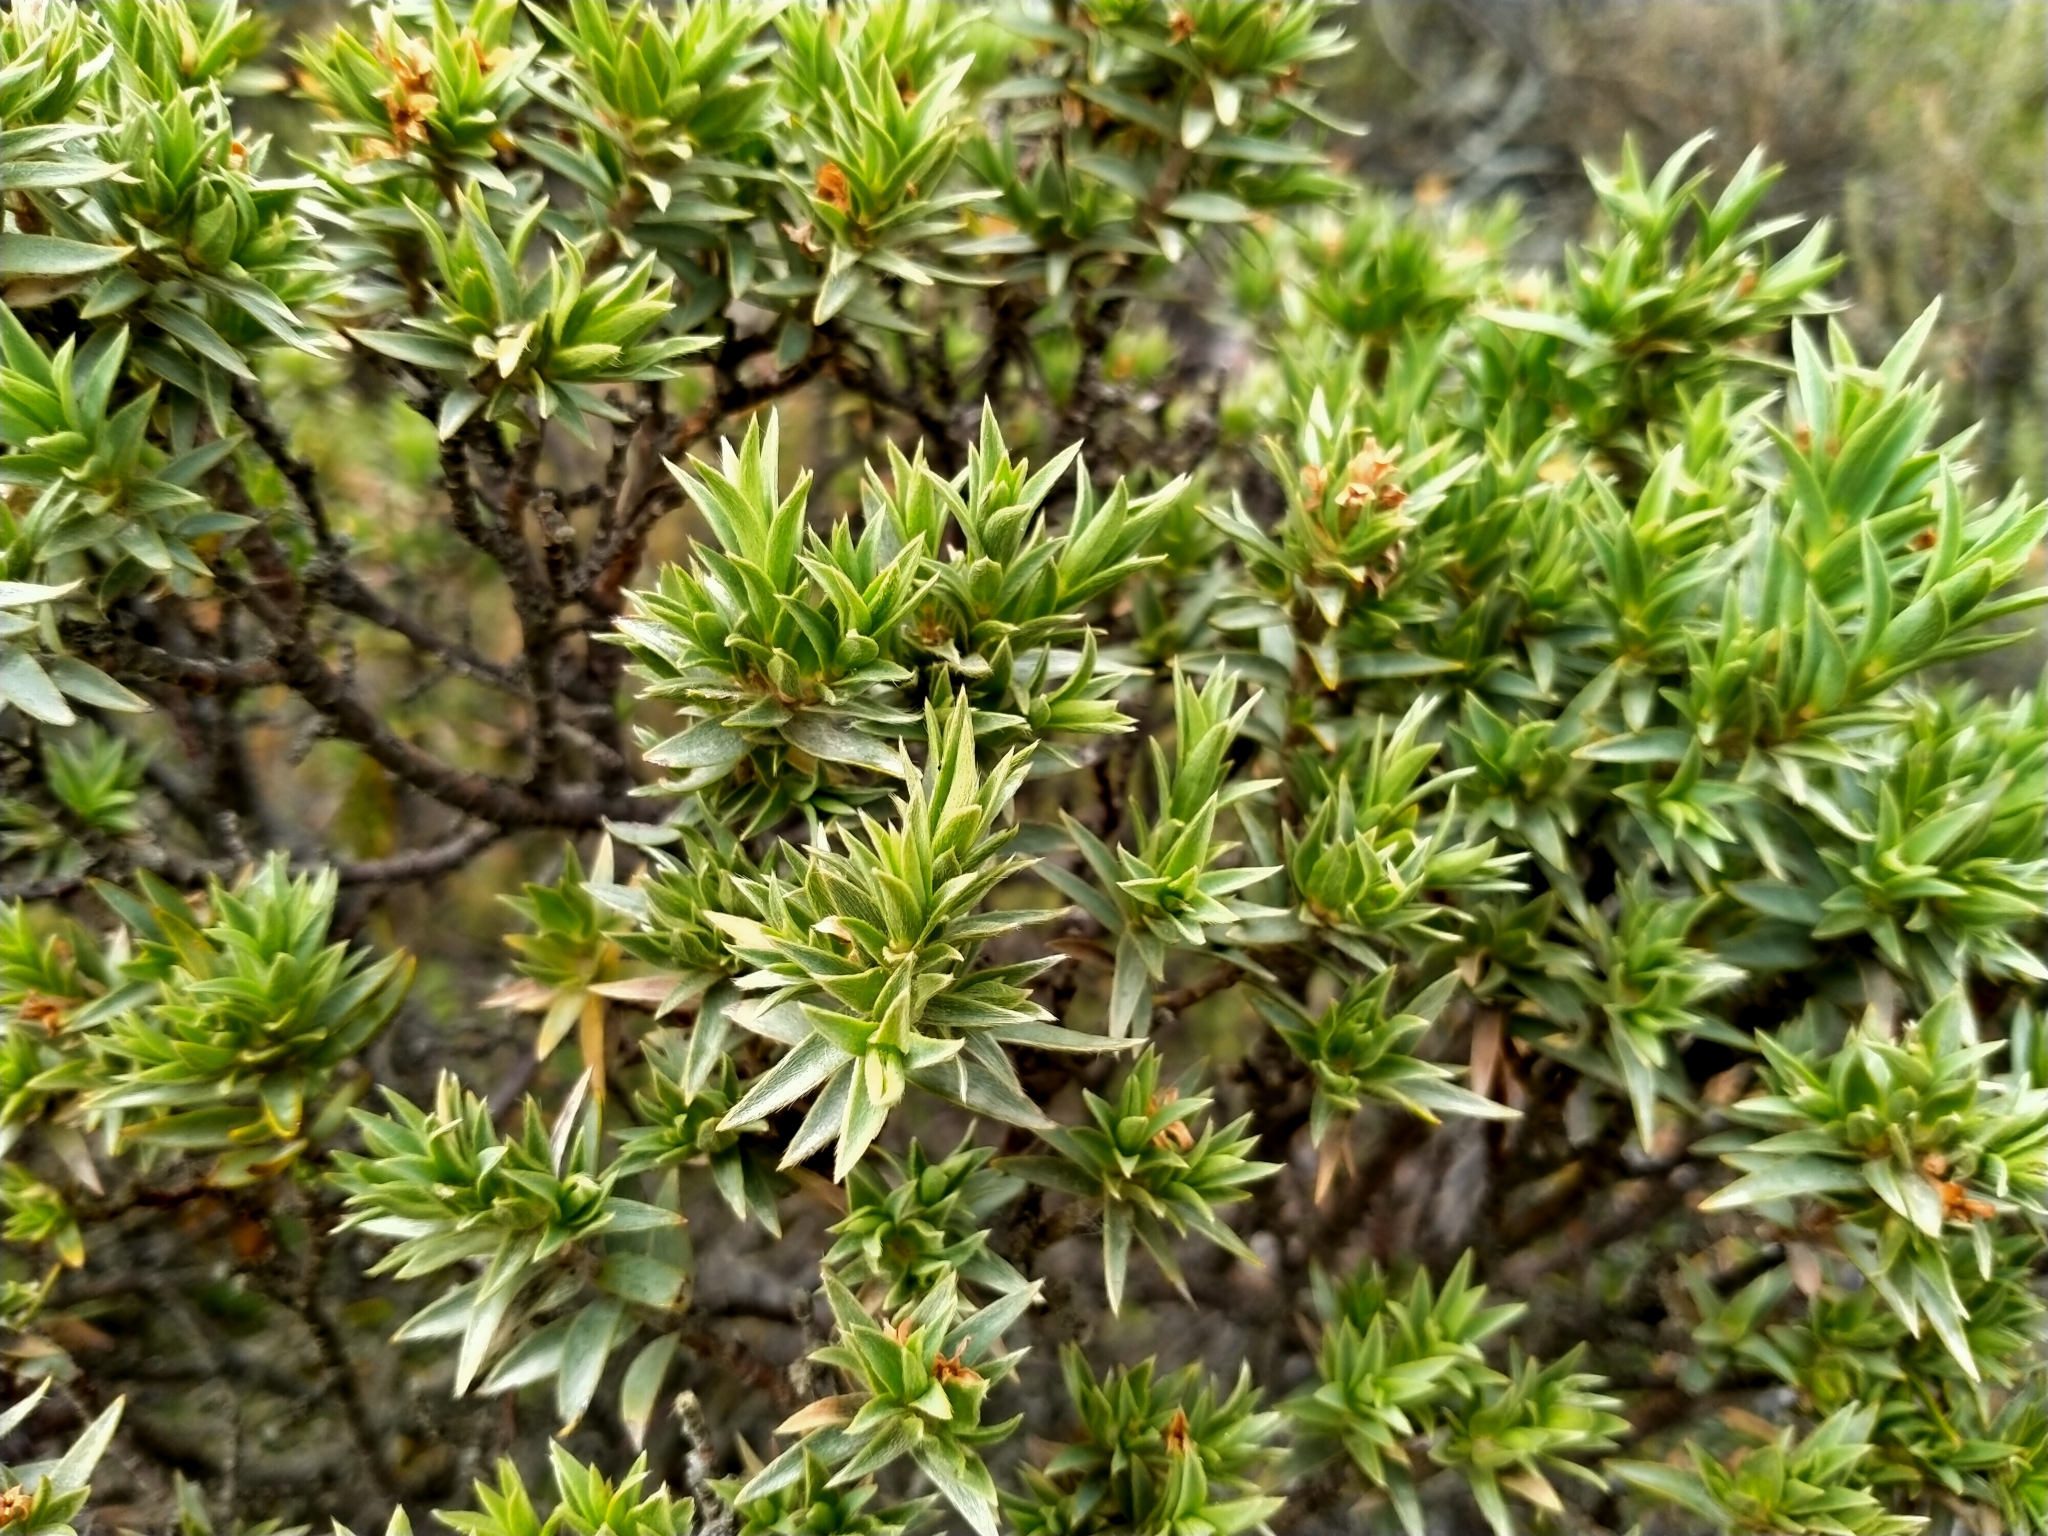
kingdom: Plantae
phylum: Tracheophyta
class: Magnoliopsida
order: Malvales
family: Thymelaeaceae
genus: Pimelea
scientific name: Pimelea aridula
